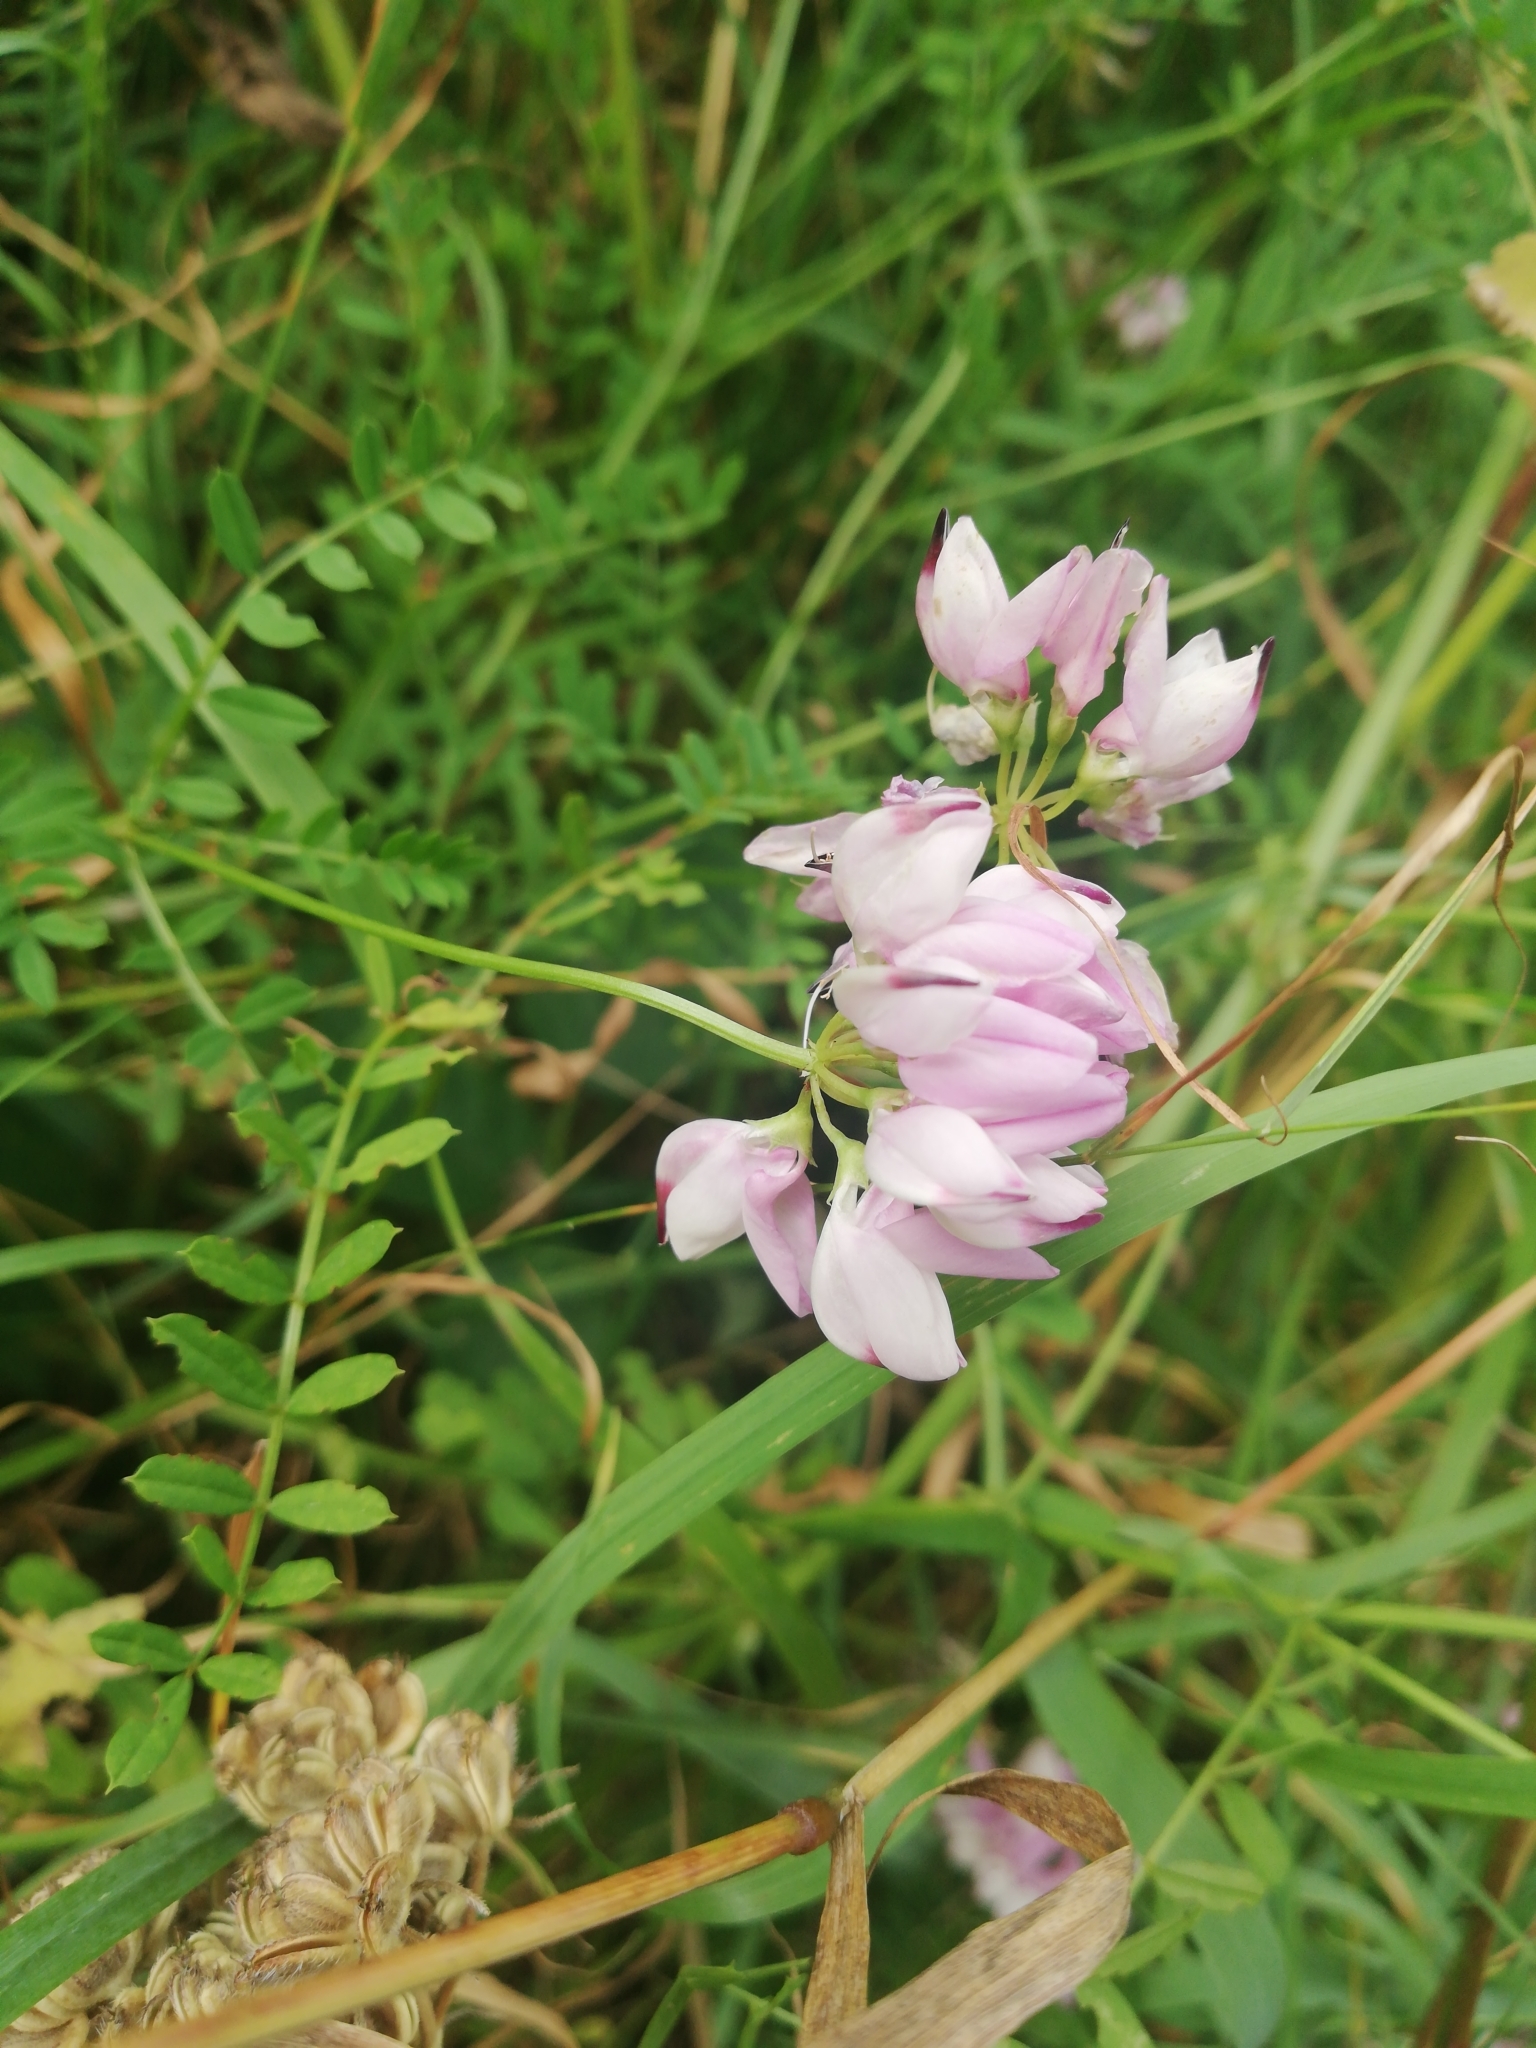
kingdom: Plantae
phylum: Tracheophyta
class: Magnoliopsida
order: Fabales
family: Fabaceae
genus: Coronilla
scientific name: Coronilla varia
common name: Crownvetch
